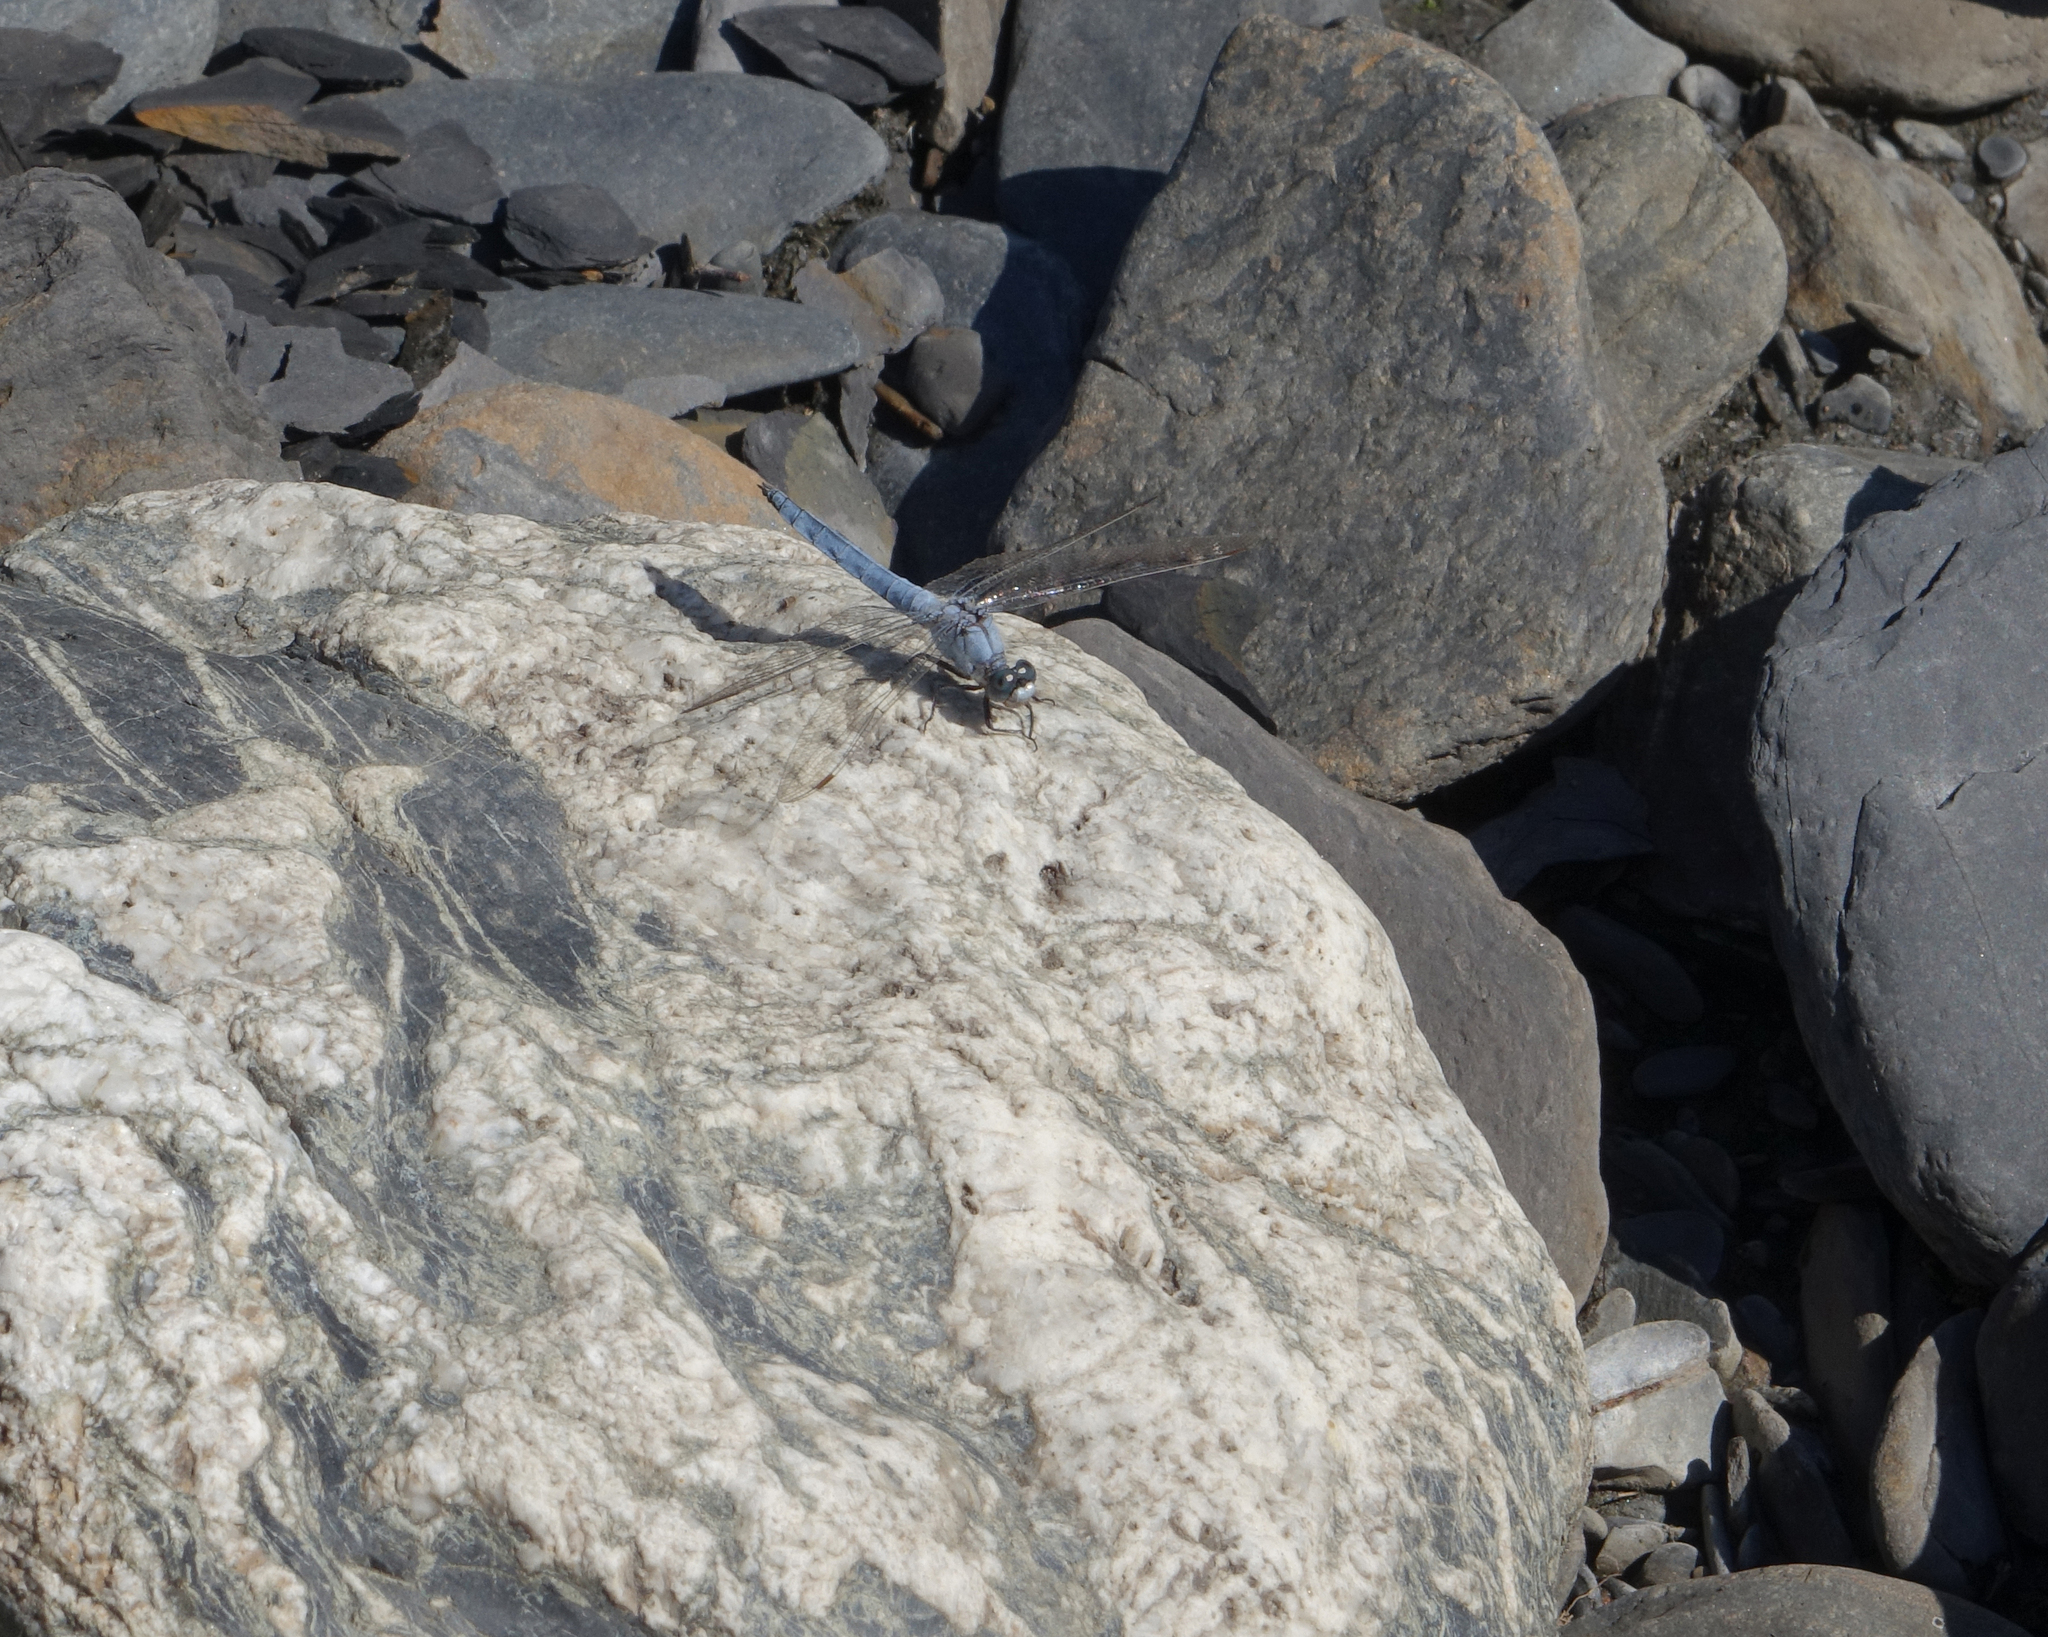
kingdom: Animalia
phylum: Arthropoda
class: Insecta
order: Odonata
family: Libellulidae
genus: Orthetrum
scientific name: Orthetrum brunneum
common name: Southern skimmer
